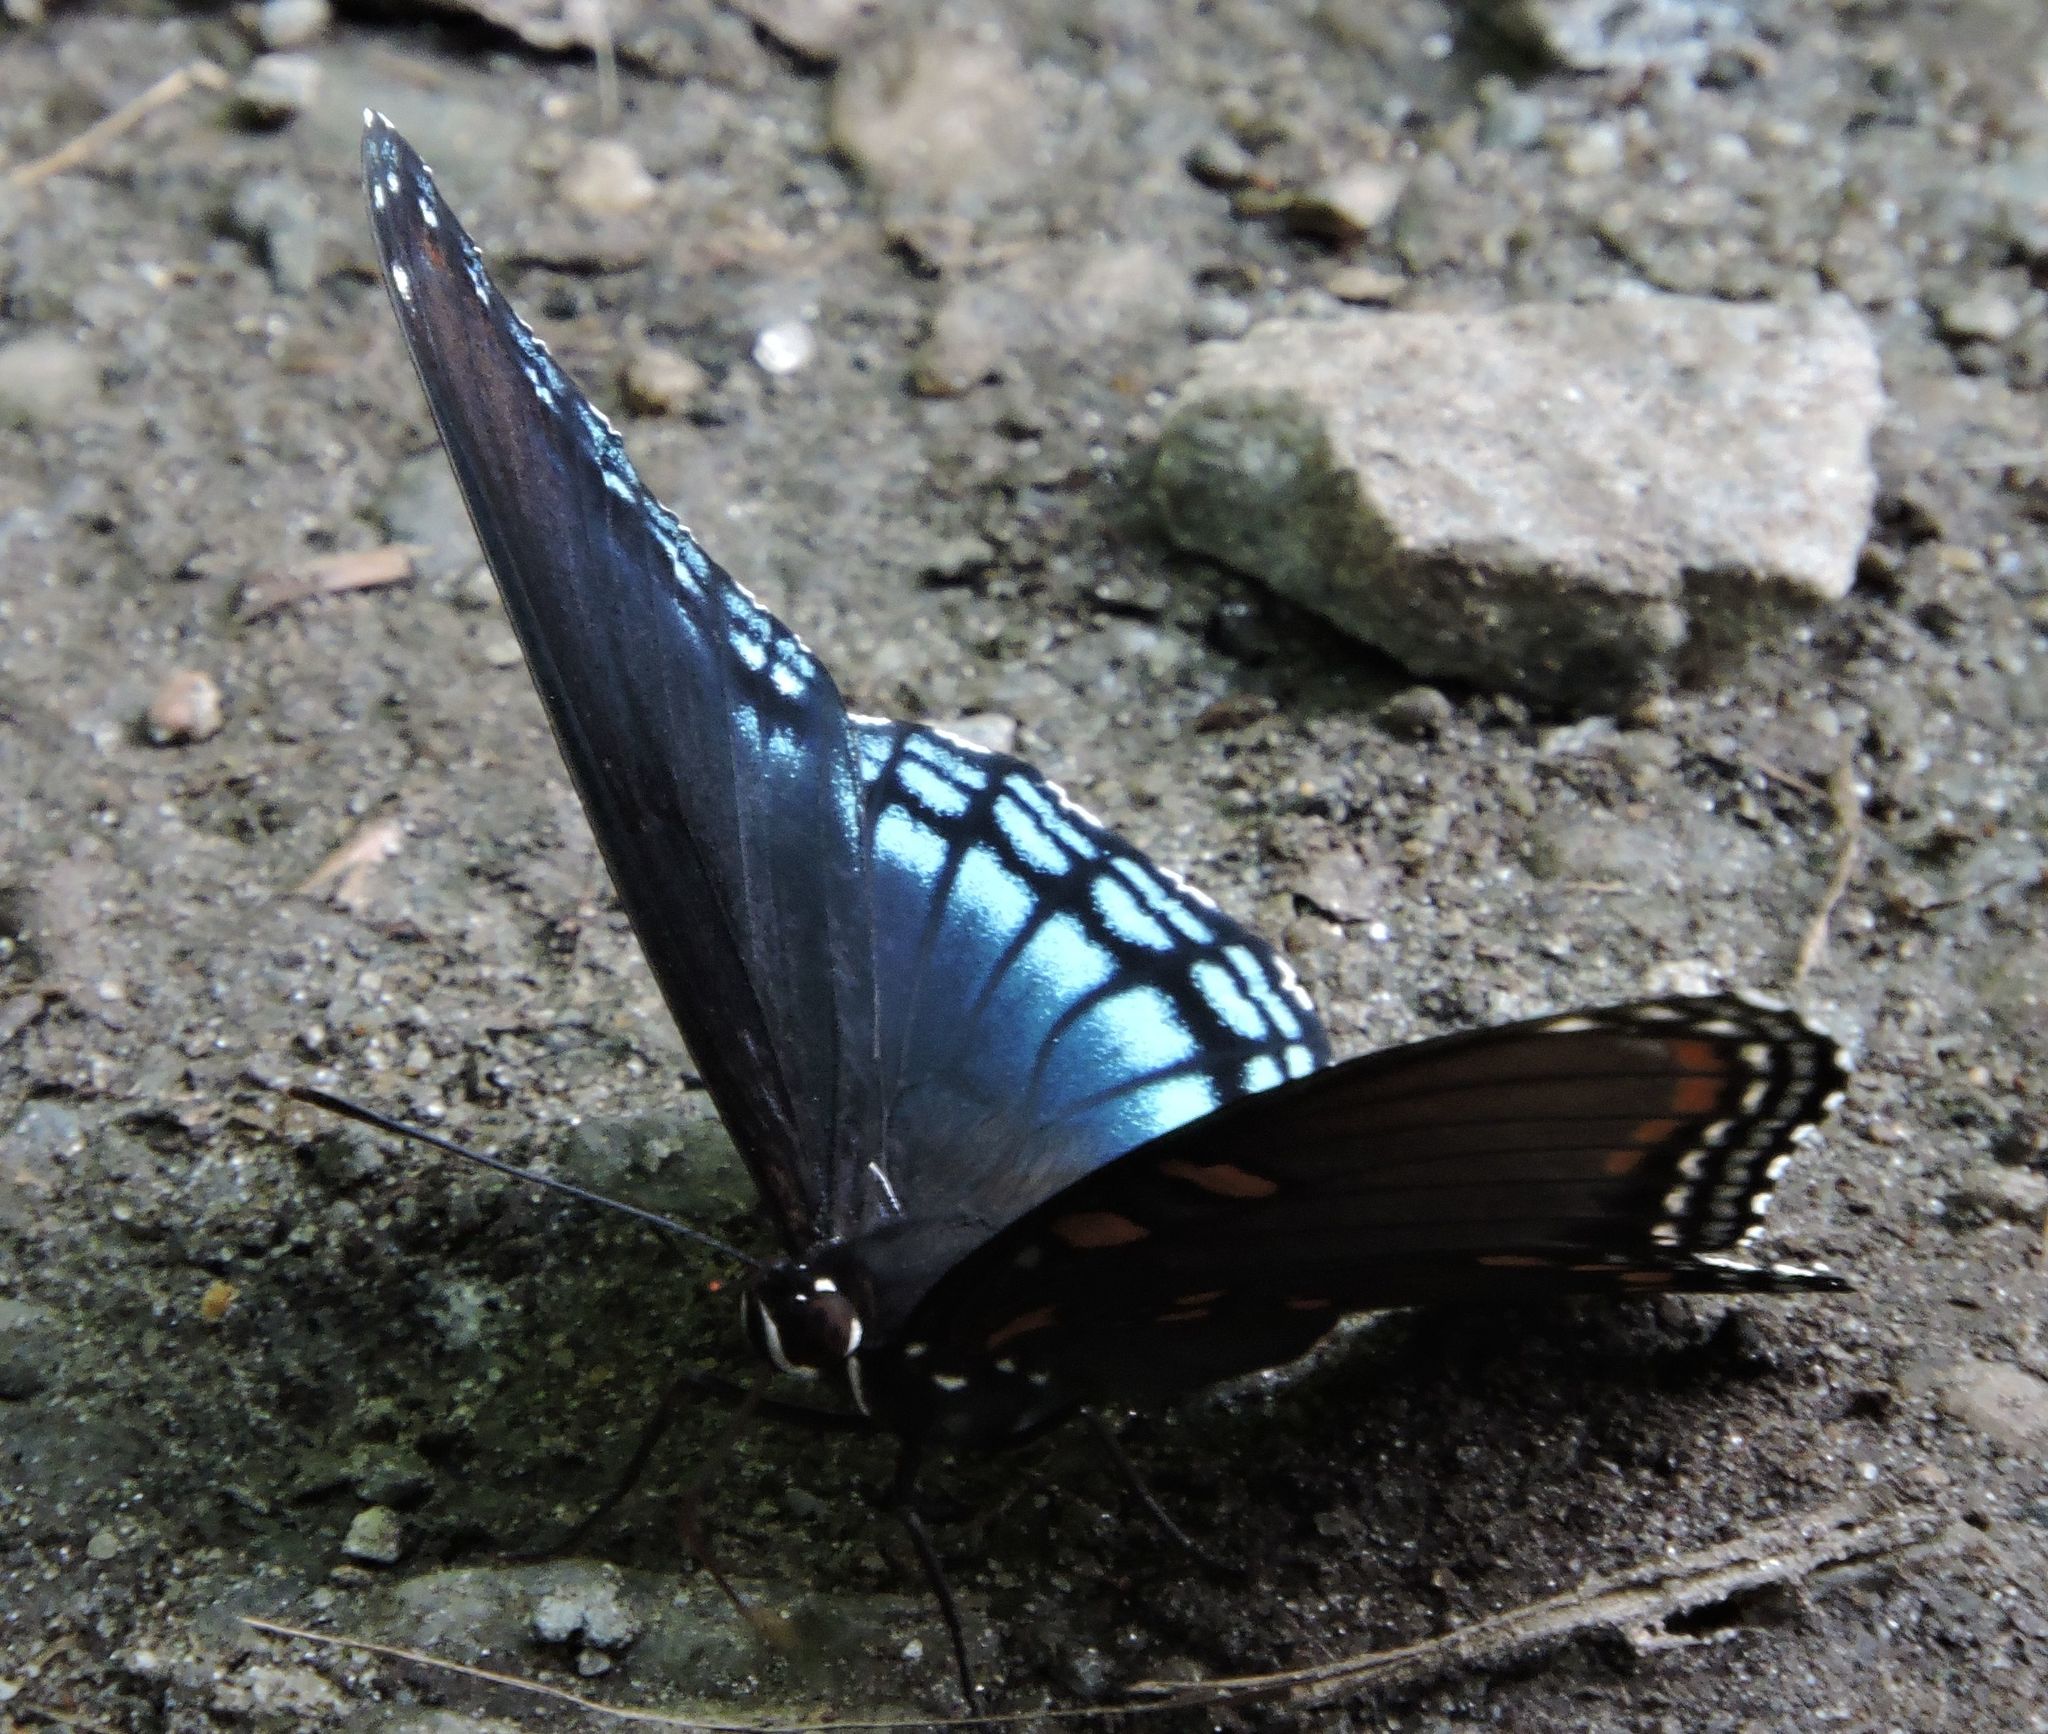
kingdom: Animalia
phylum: Arthropoda
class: Insecta
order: Lepidoptera
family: Nymphalidae
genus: Limenitis
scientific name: Limenitis astyanax
